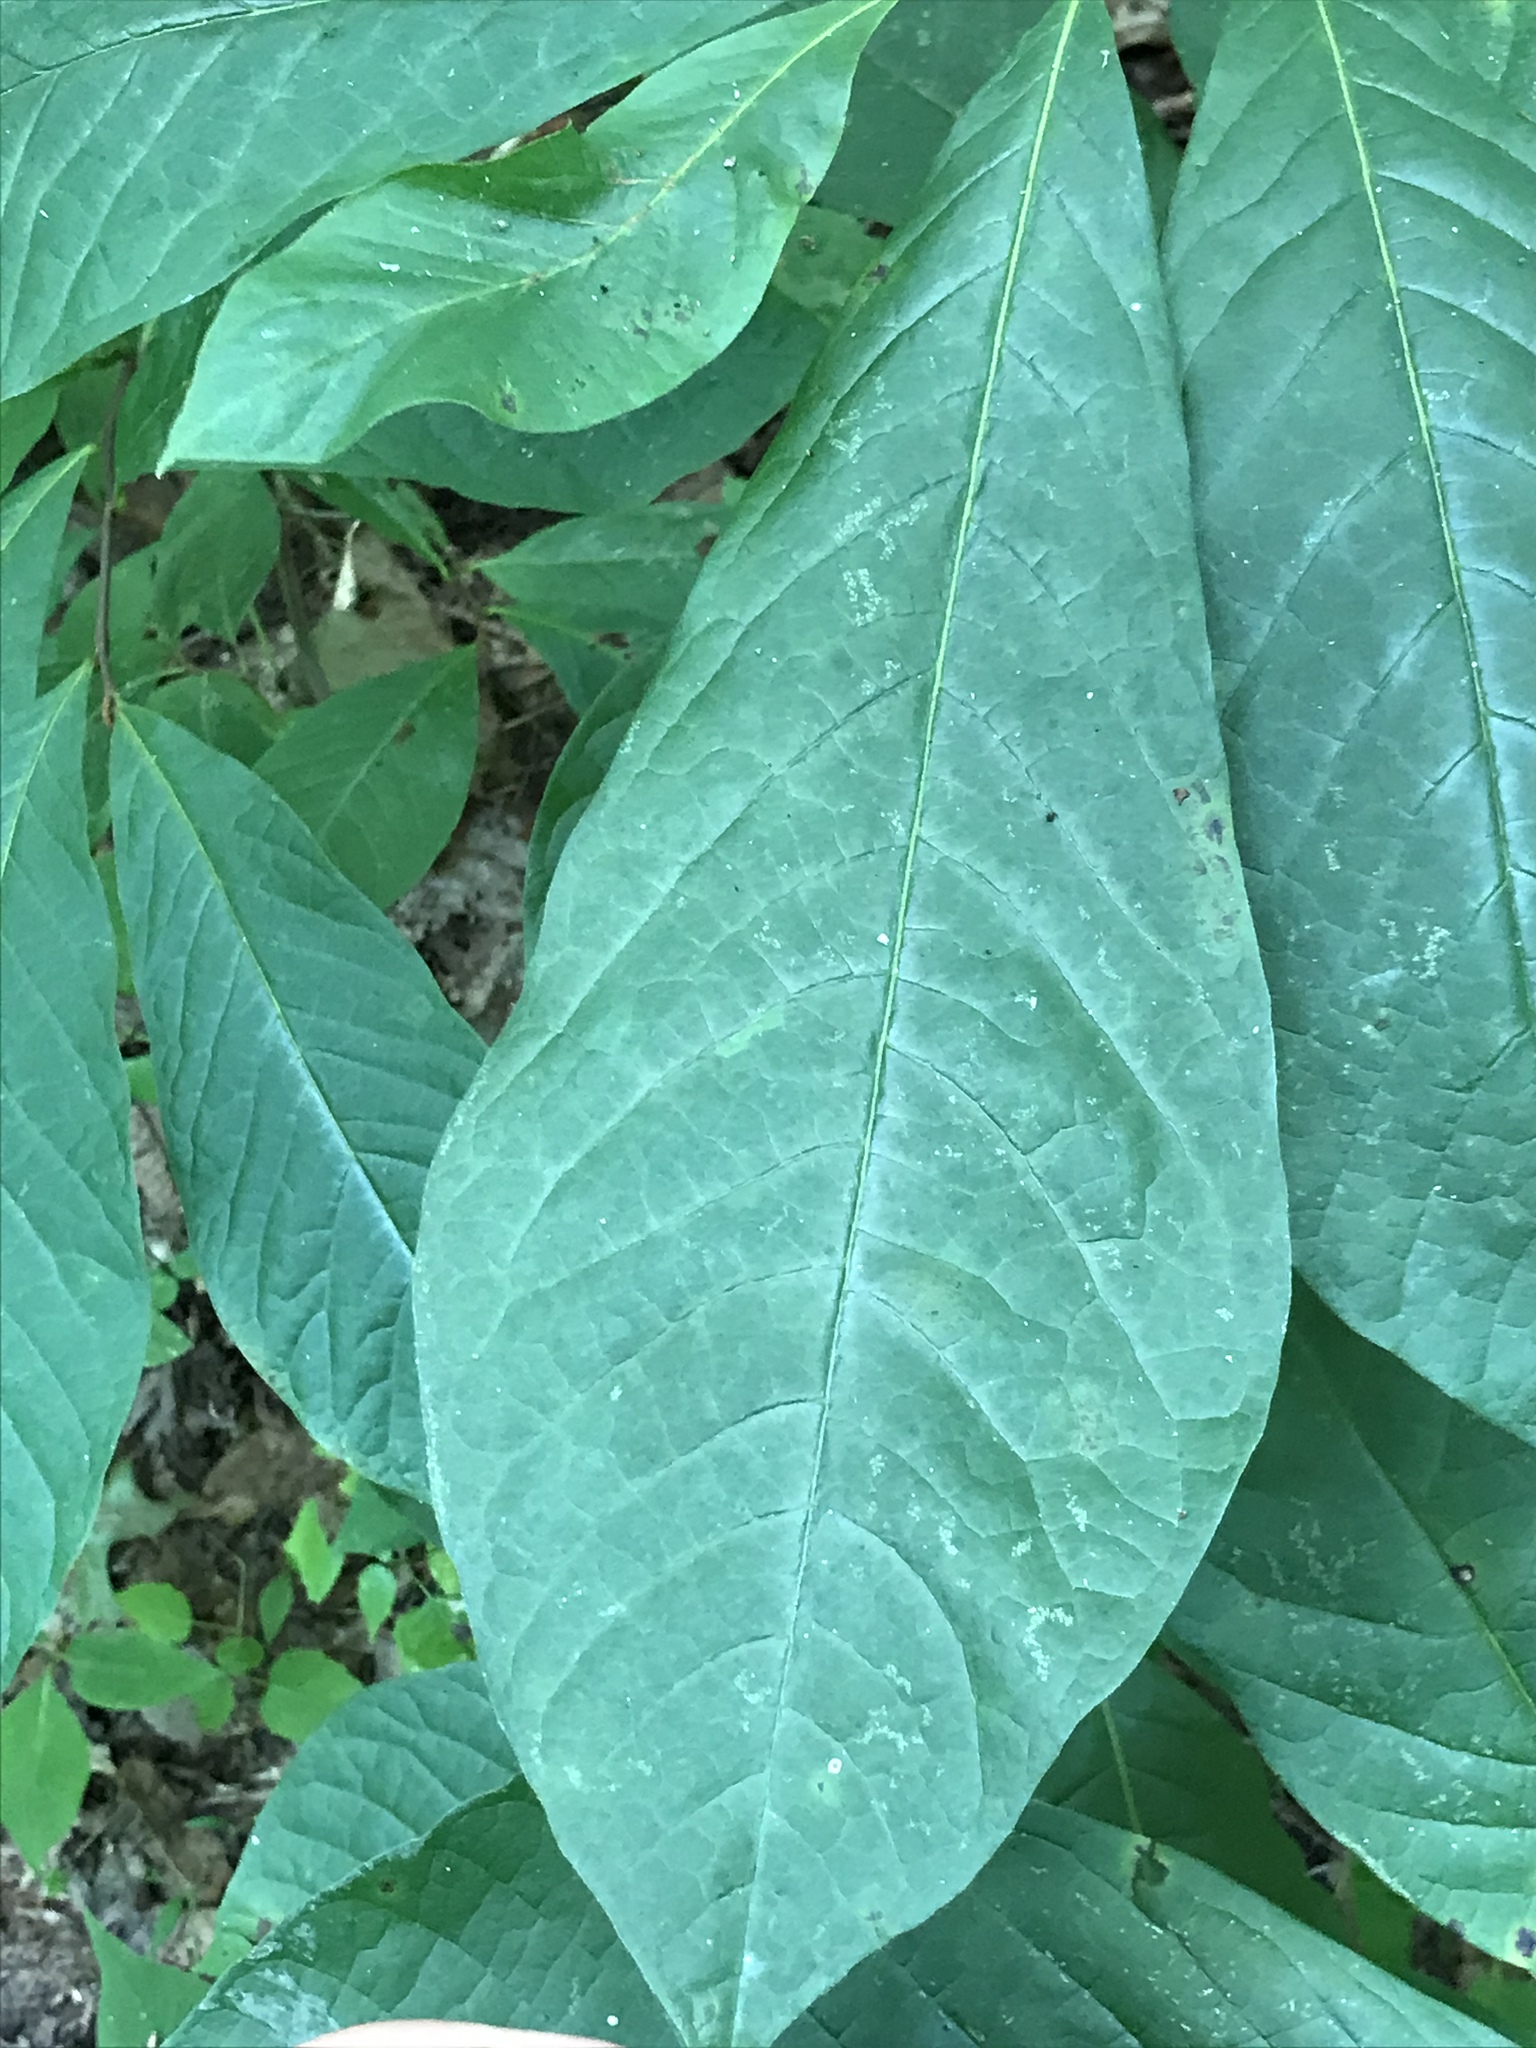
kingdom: Plantae
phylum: Tracheophyta
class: Magnoliopsida
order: Magnoliales
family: Annonaceae
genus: Asimina
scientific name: Asimina triloba
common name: Dog-banana
